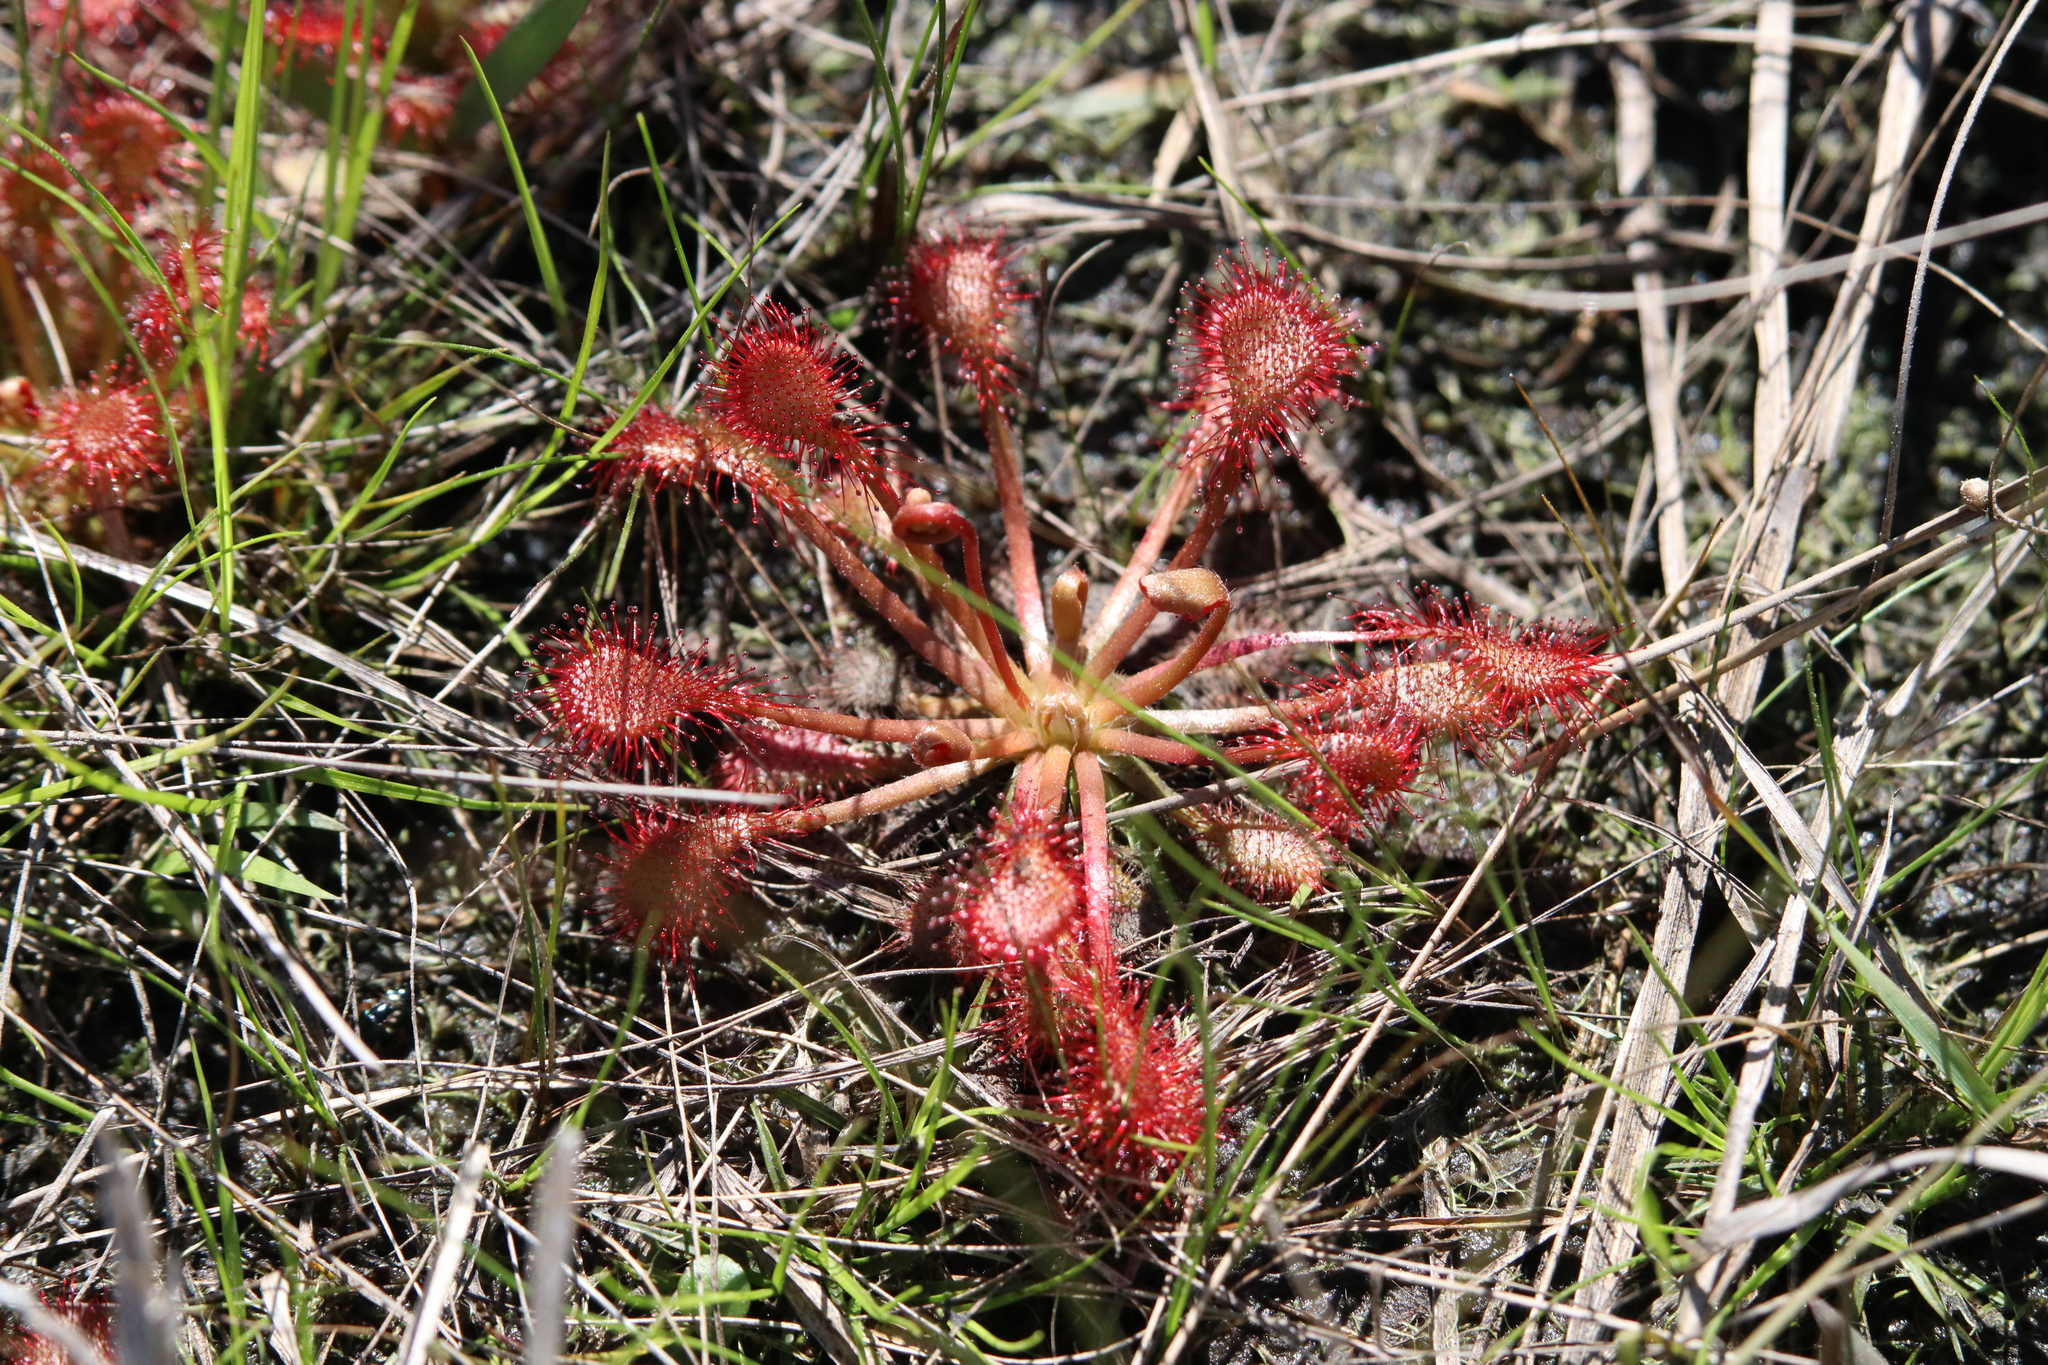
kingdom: Plantae
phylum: Tracheophyta
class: Magnoliopsida
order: Caryophyllales
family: Droseraceae
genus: Drosera
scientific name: Drosera capillaris
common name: Pink sundew
